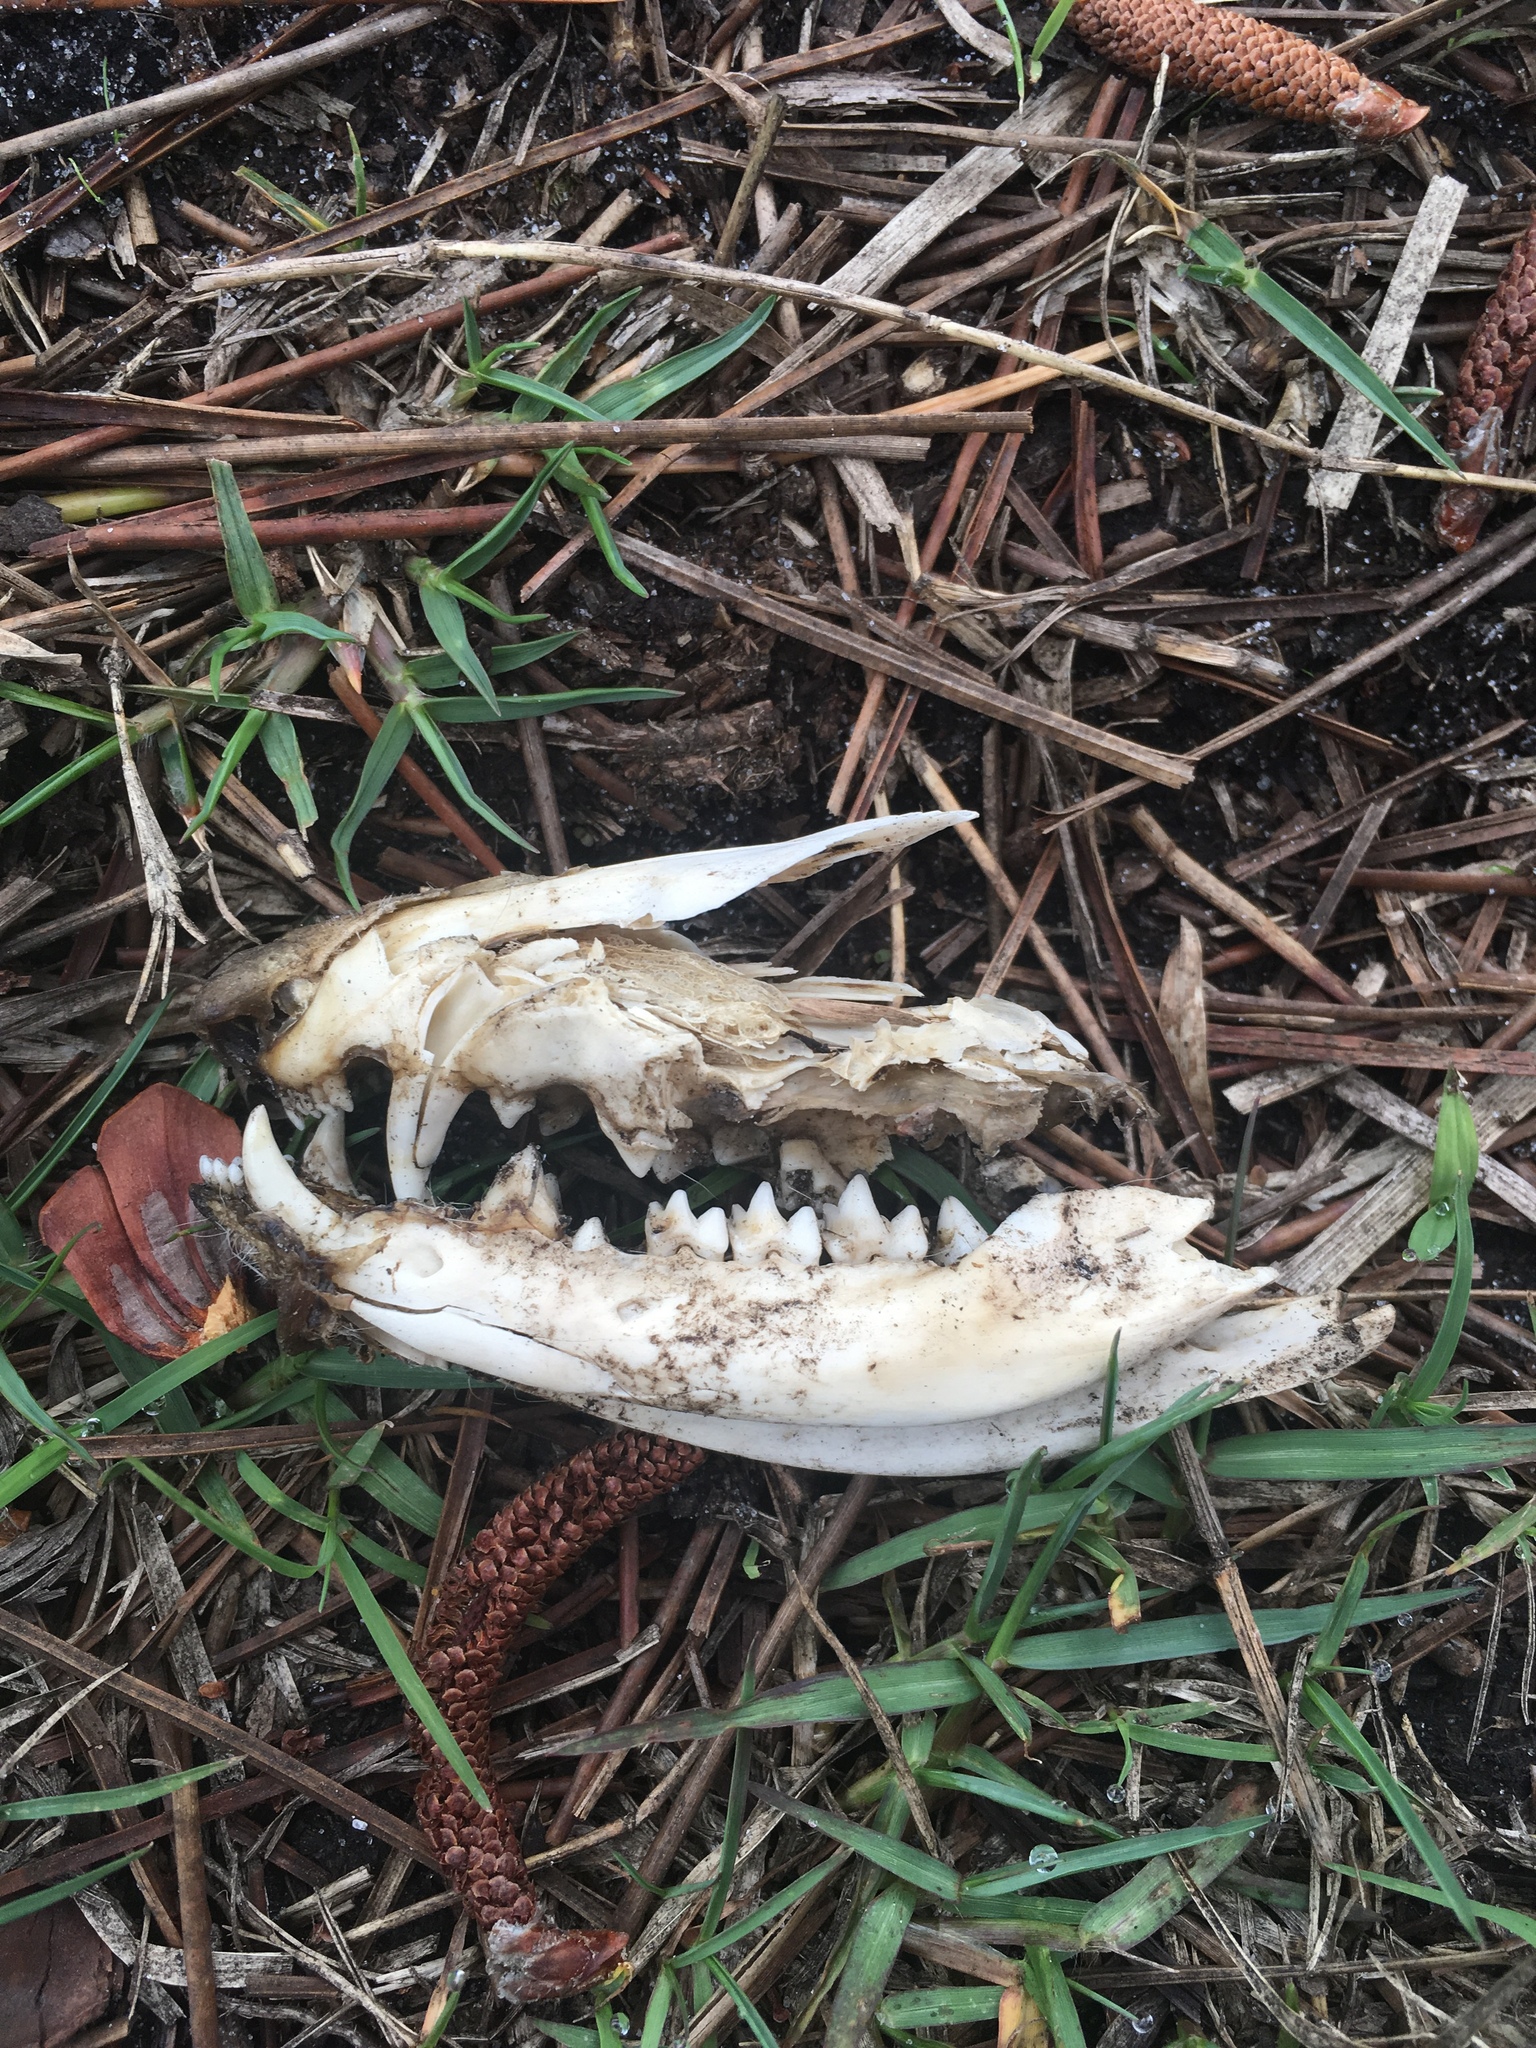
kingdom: Animalia
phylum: Chordata
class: Mammalia
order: Didelphimorphia
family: Didelphidae
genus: Didelphis
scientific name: Didelphis virginiana
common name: Virginia opossum
